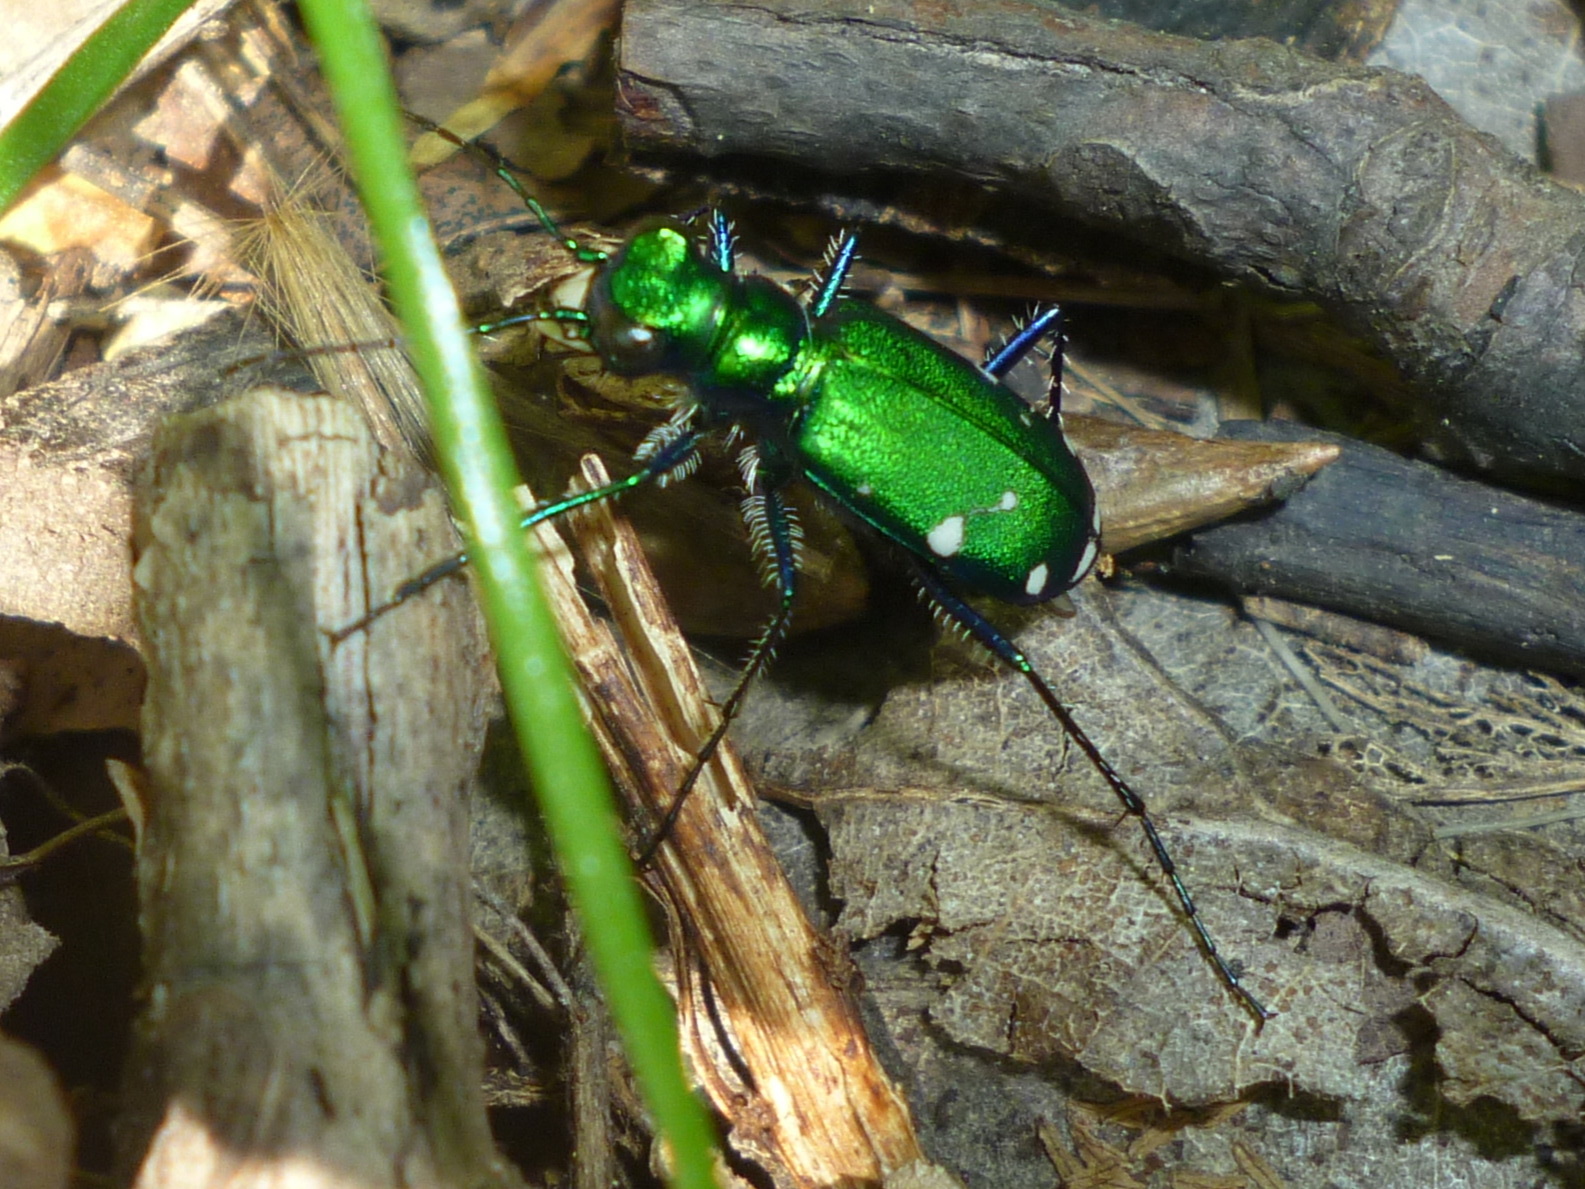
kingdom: Animalia
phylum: Arthropoda
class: Insecta
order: Coleoptera
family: Carabidae
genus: Cicindela
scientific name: Cicindela sexguttata
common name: Six-spotted tiger beetle
